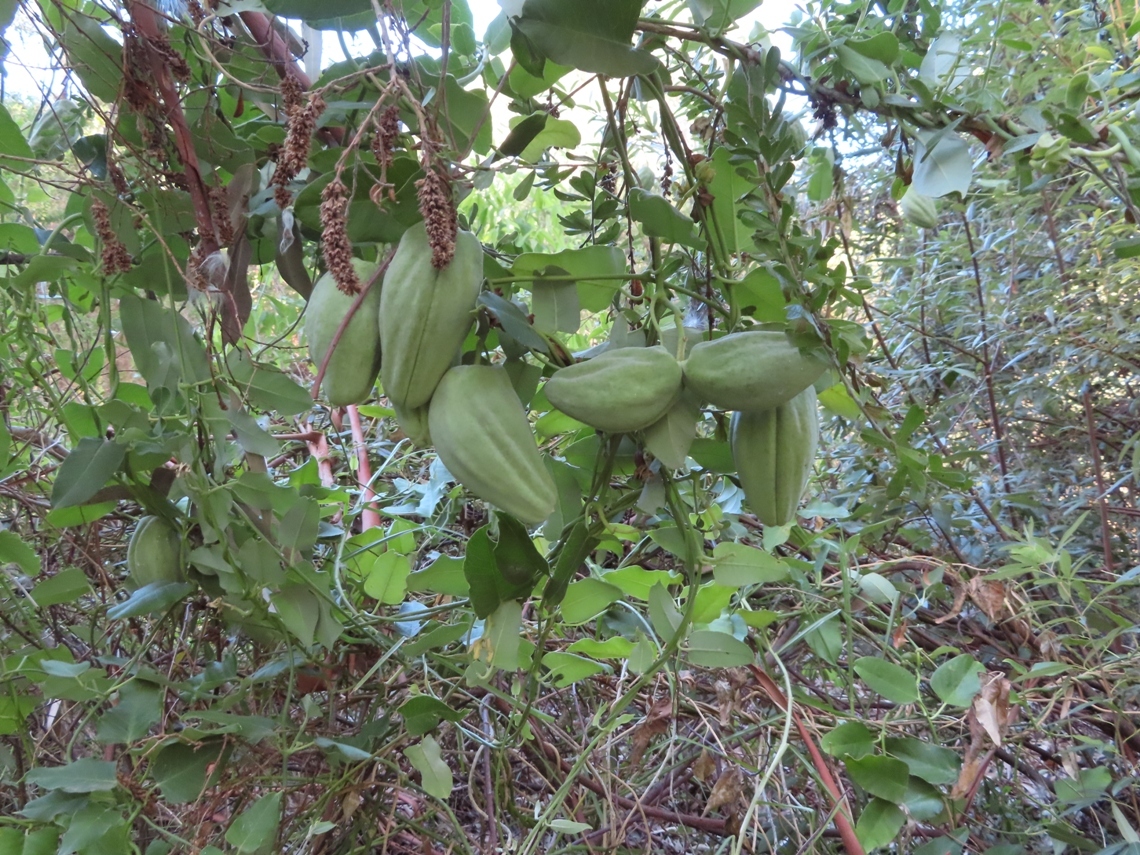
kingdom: Plantae
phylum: Tracheophyta
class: Magnoliopsida
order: Gentianales
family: Apocynaceae
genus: Araujia
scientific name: Araujia sericifera
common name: White bladderflower
